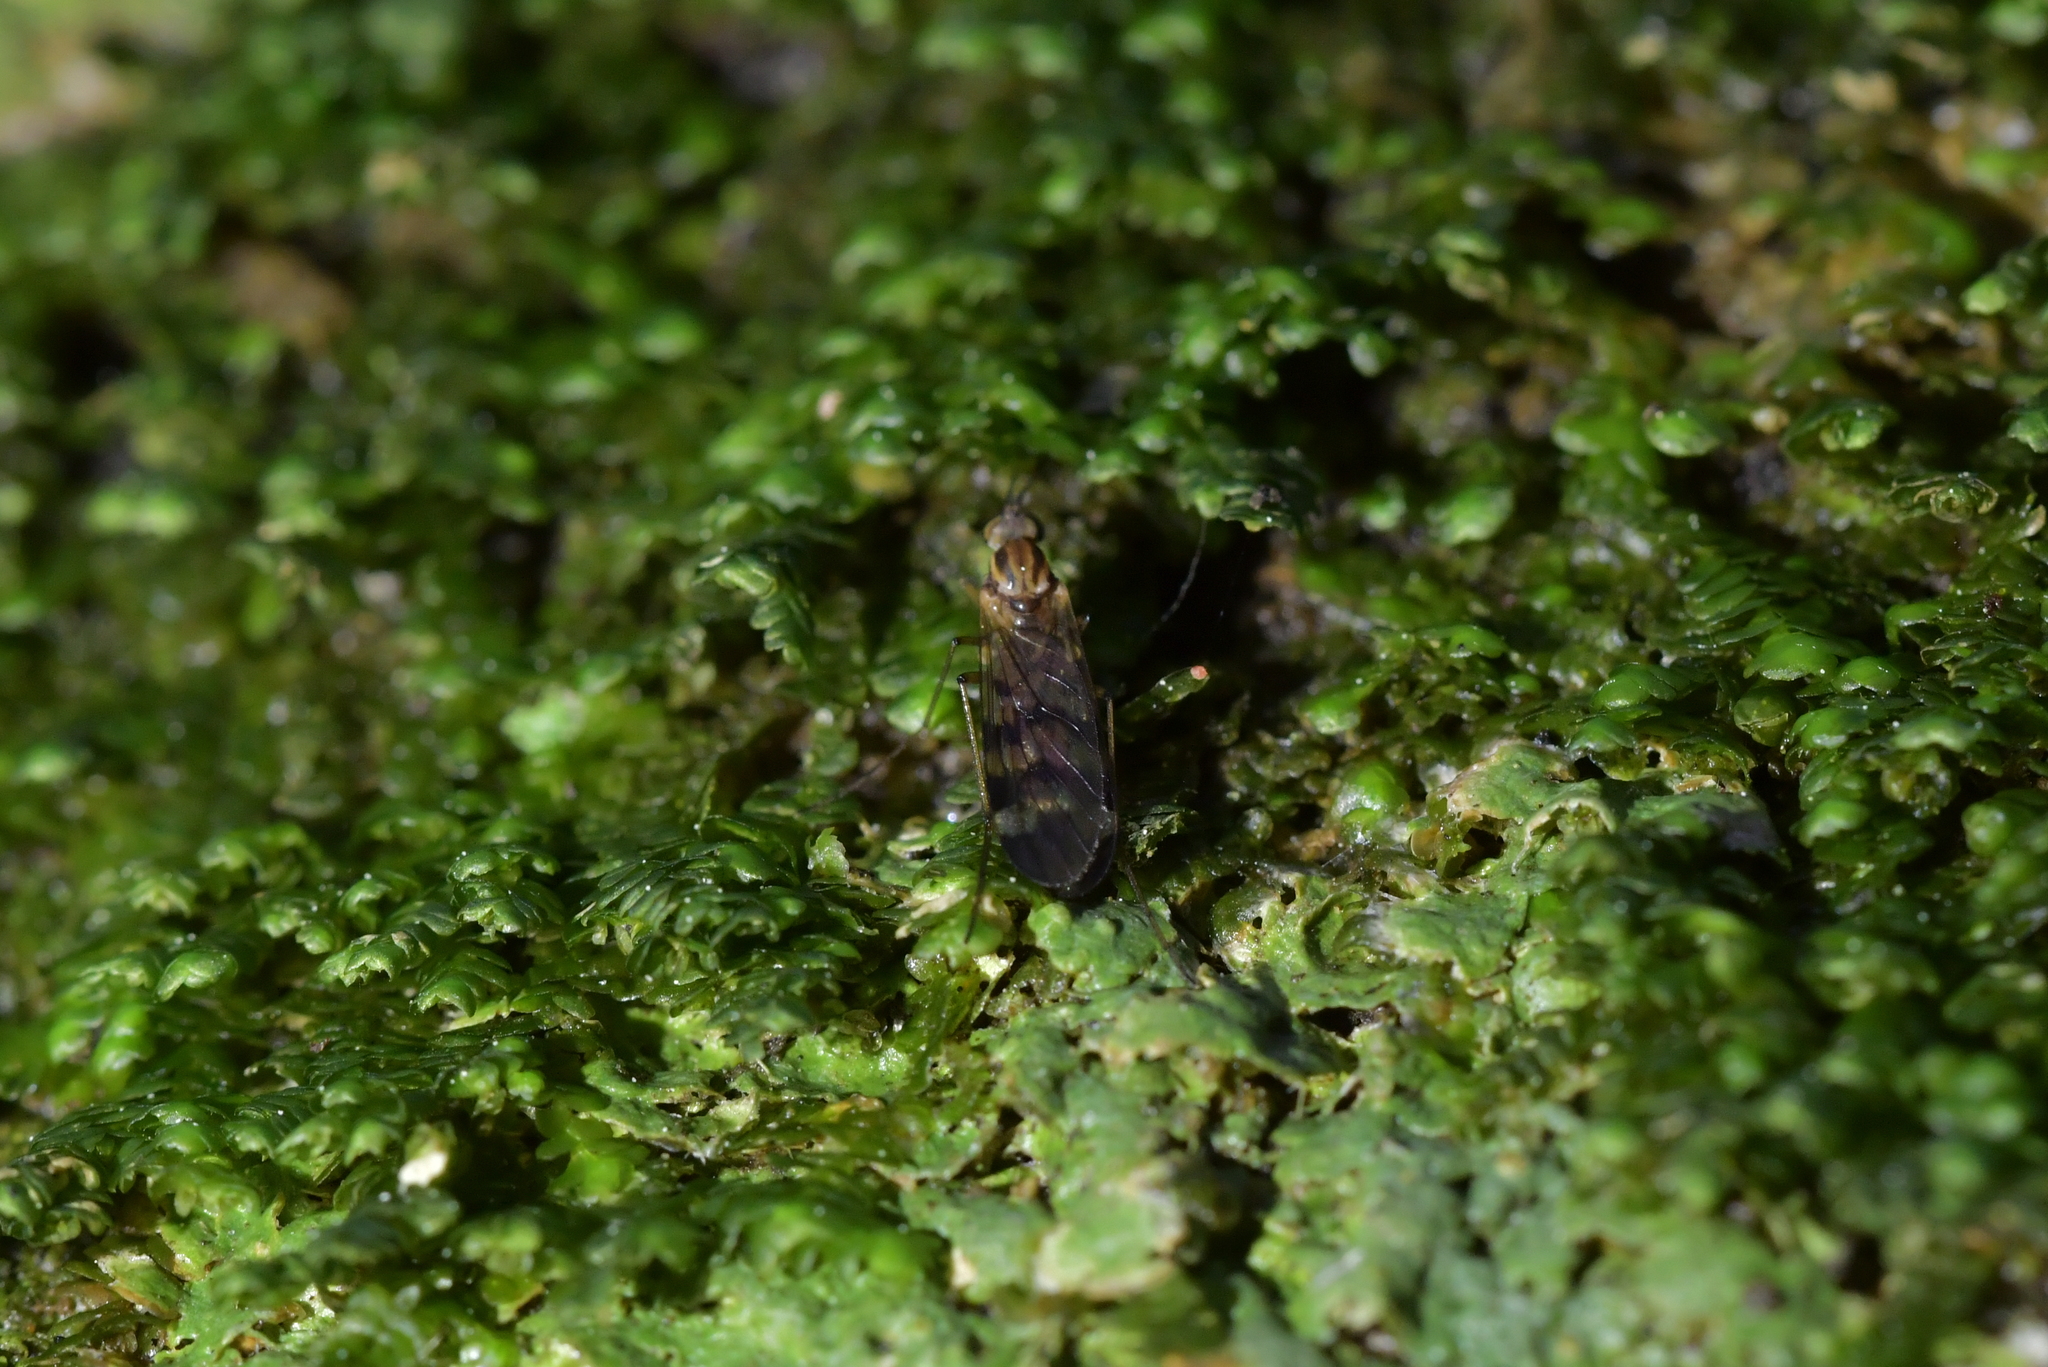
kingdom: Animalia
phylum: Arthropoda
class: Insecta
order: Diptera
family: Anisopodidae
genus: Sylvicola
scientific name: Sylvicola undulatus
